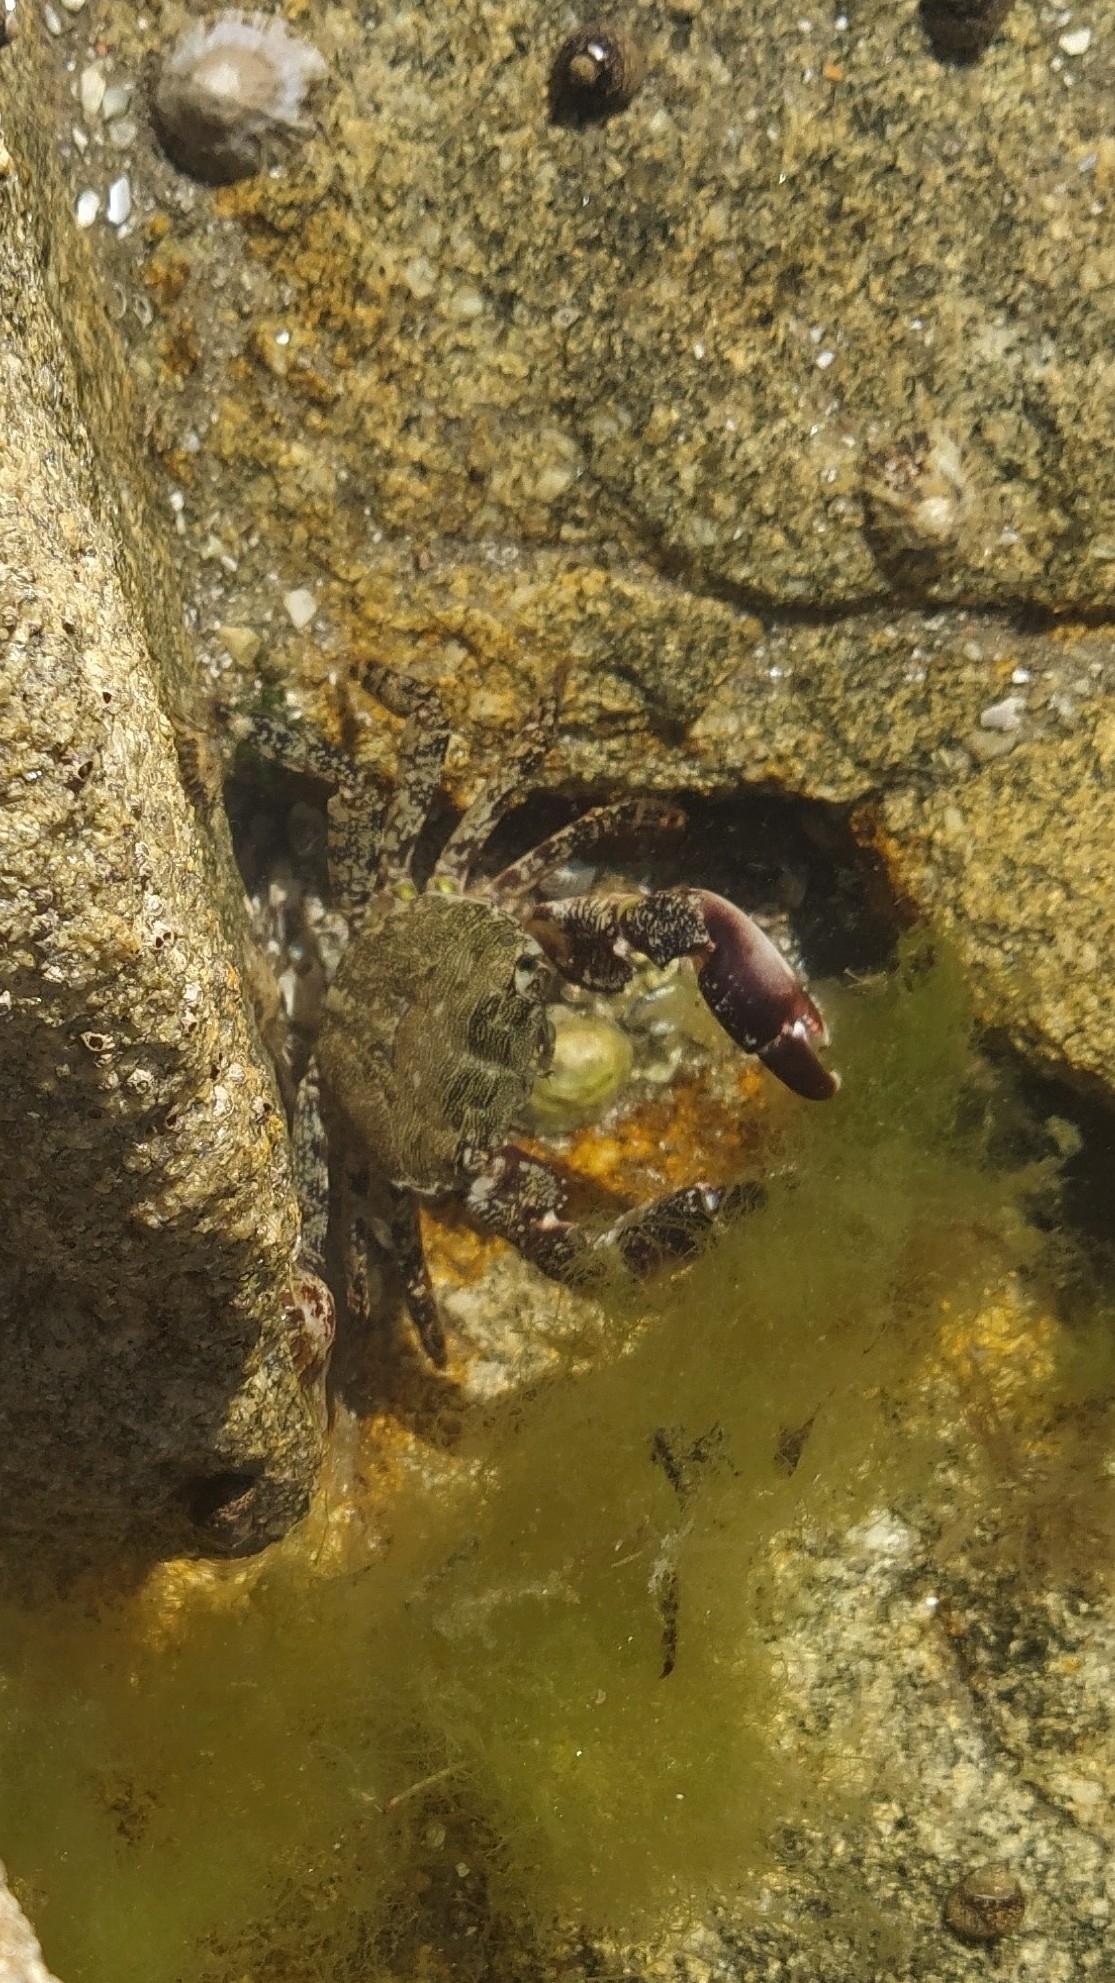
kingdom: Animalia
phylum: Arthropoda
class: Malacostraca
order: Decapoda
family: Grapsidae
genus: Pachygrapsus
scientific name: Pachygrapsus marmoratus
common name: Marbled rock crab
